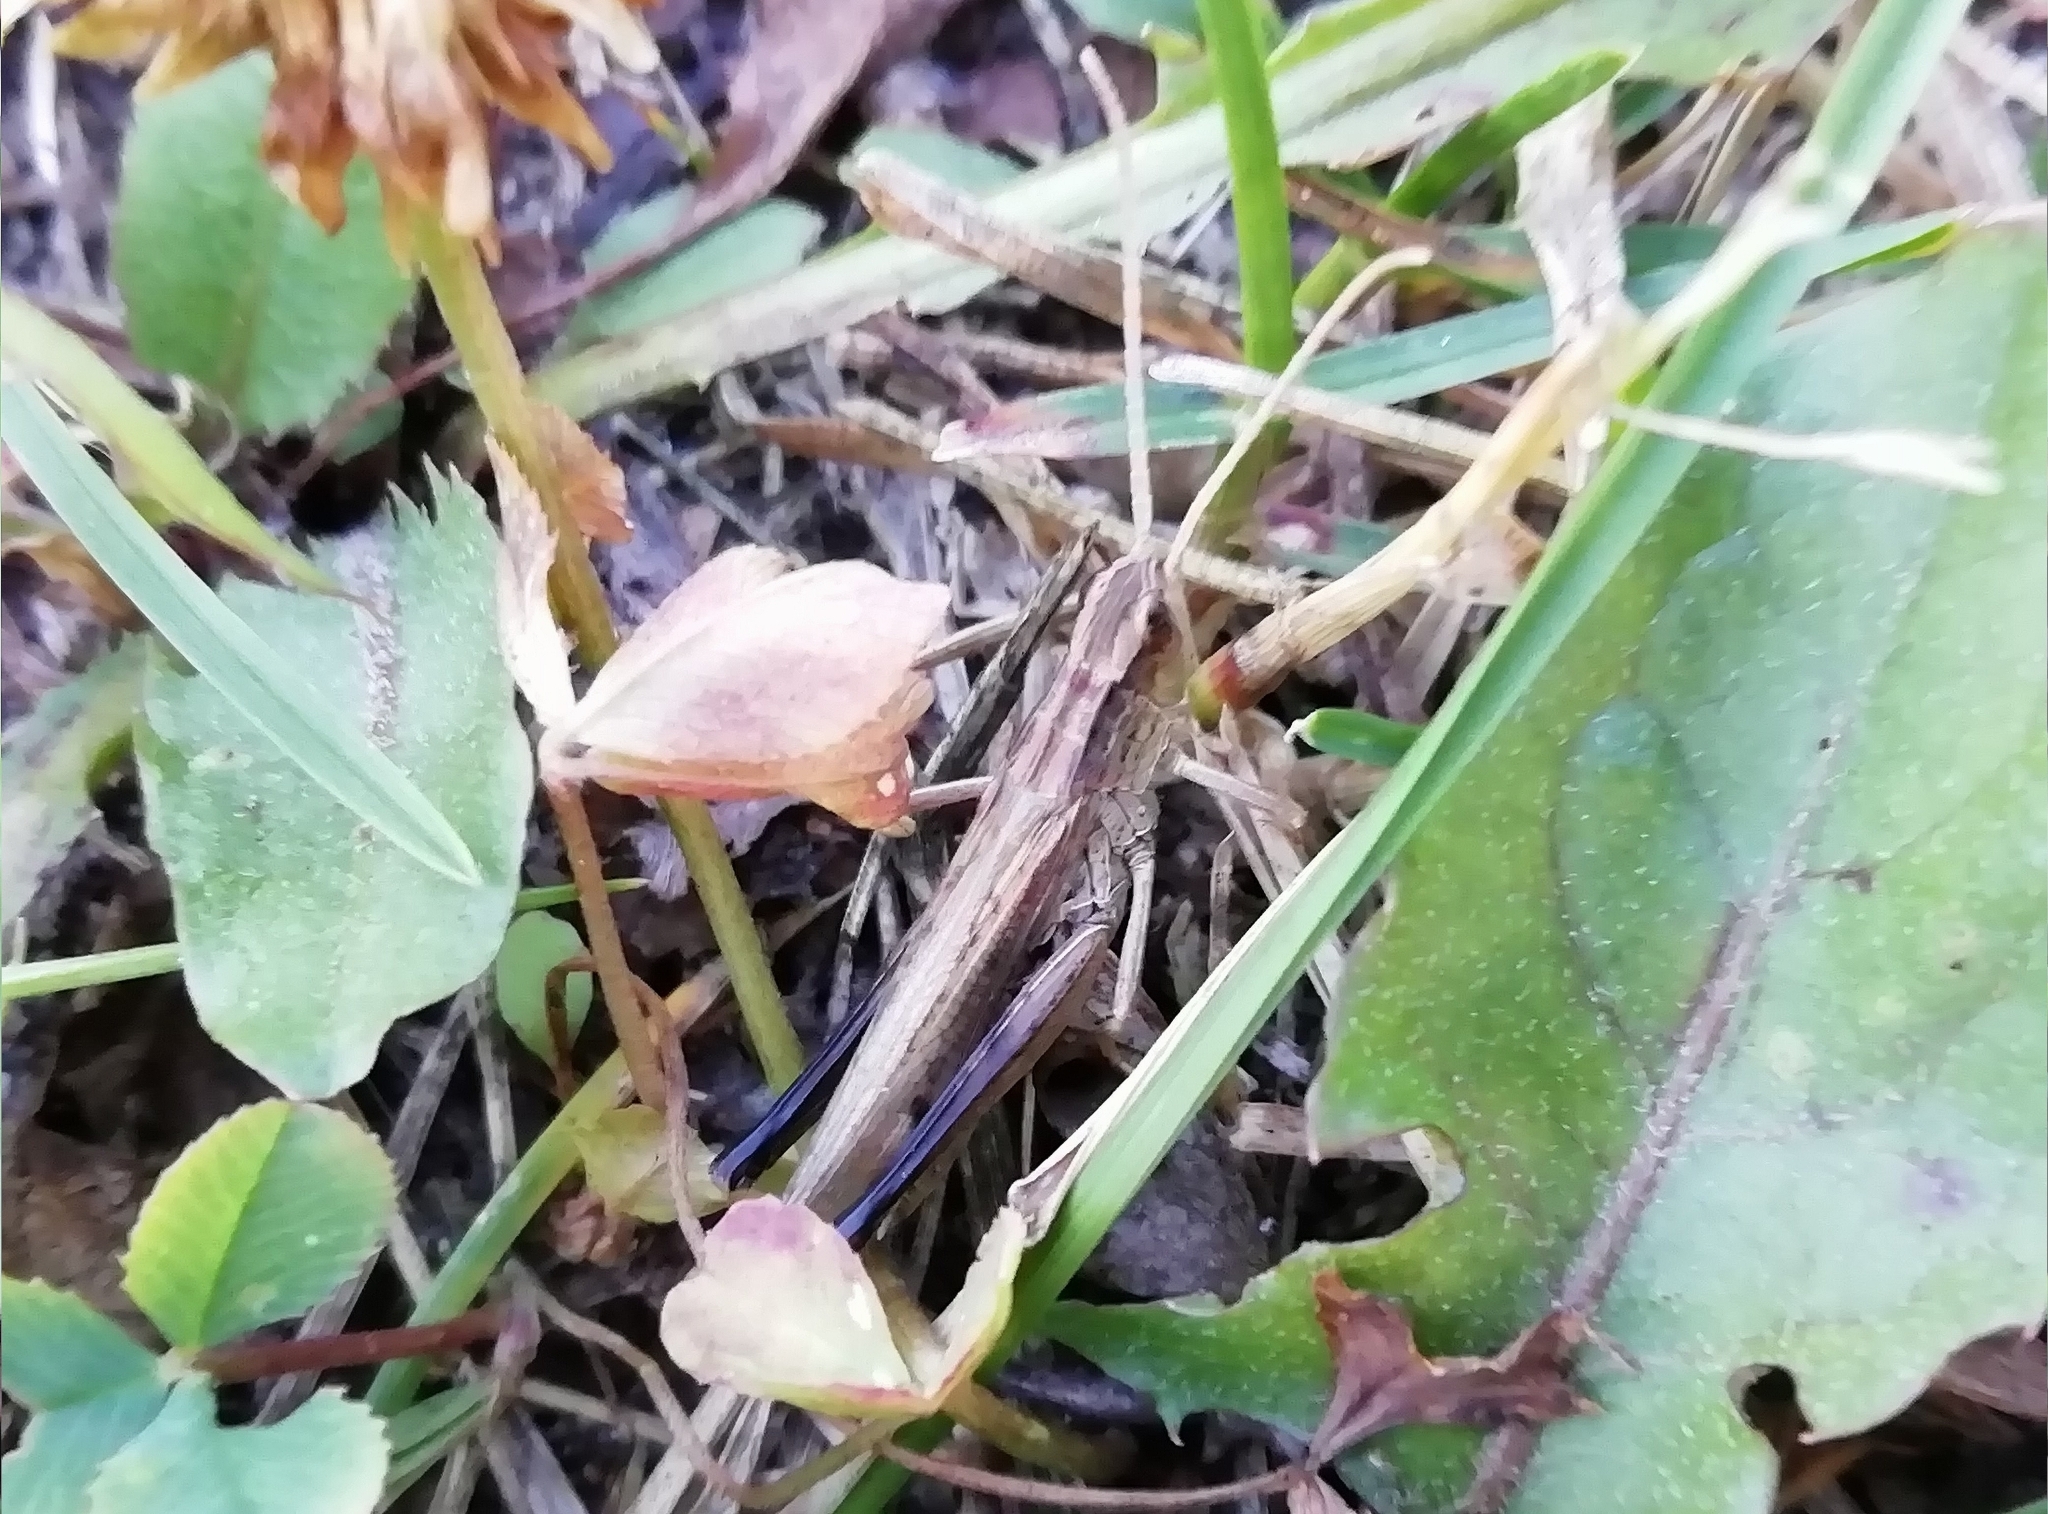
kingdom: Animalia
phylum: Arthropoda
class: Insecta
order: Orthoptera
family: Acrididae
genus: Chorthippus
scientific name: Chorthippus dorsatus
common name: Steppe grasshopper
